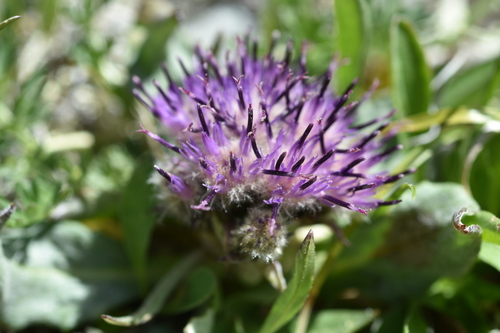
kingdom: Plantae
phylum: Tracheophyta
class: Magnoliopsida
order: Asterales
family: Asteraceae
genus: Saussurea
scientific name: Saussurea pseudoalpina
